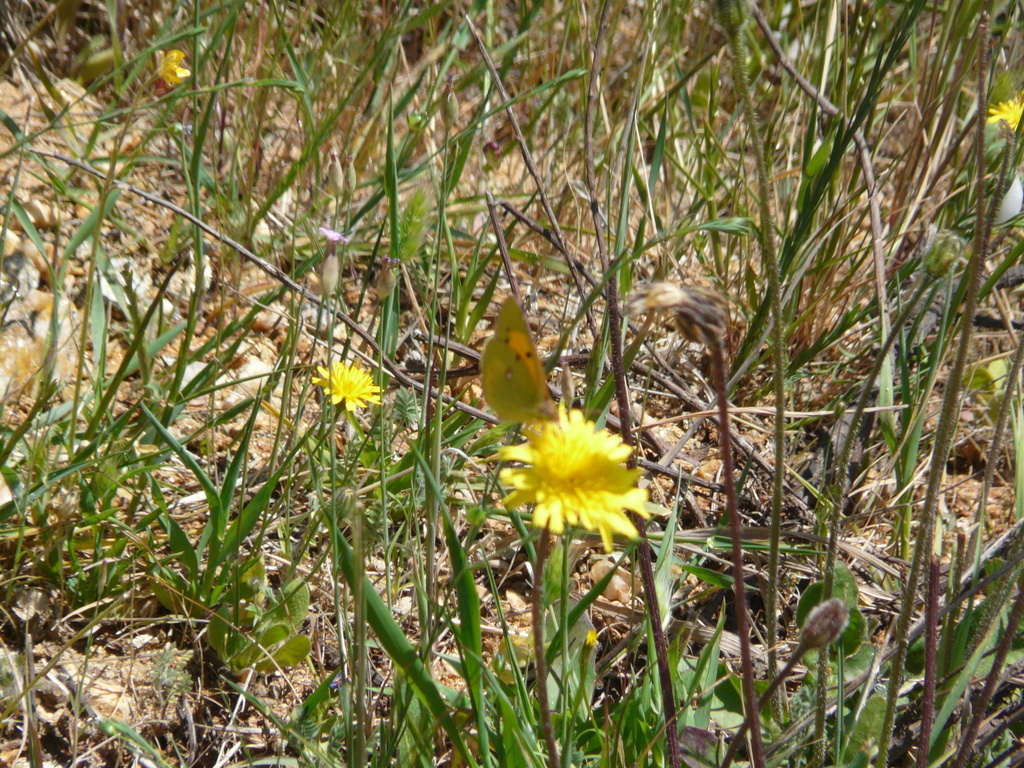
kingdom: Animalia
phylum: Arthropoda
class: Insecta
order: Lepidoptera
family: Pieridae
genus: Colias
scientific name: Colias croceus
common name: Clouded yellow
